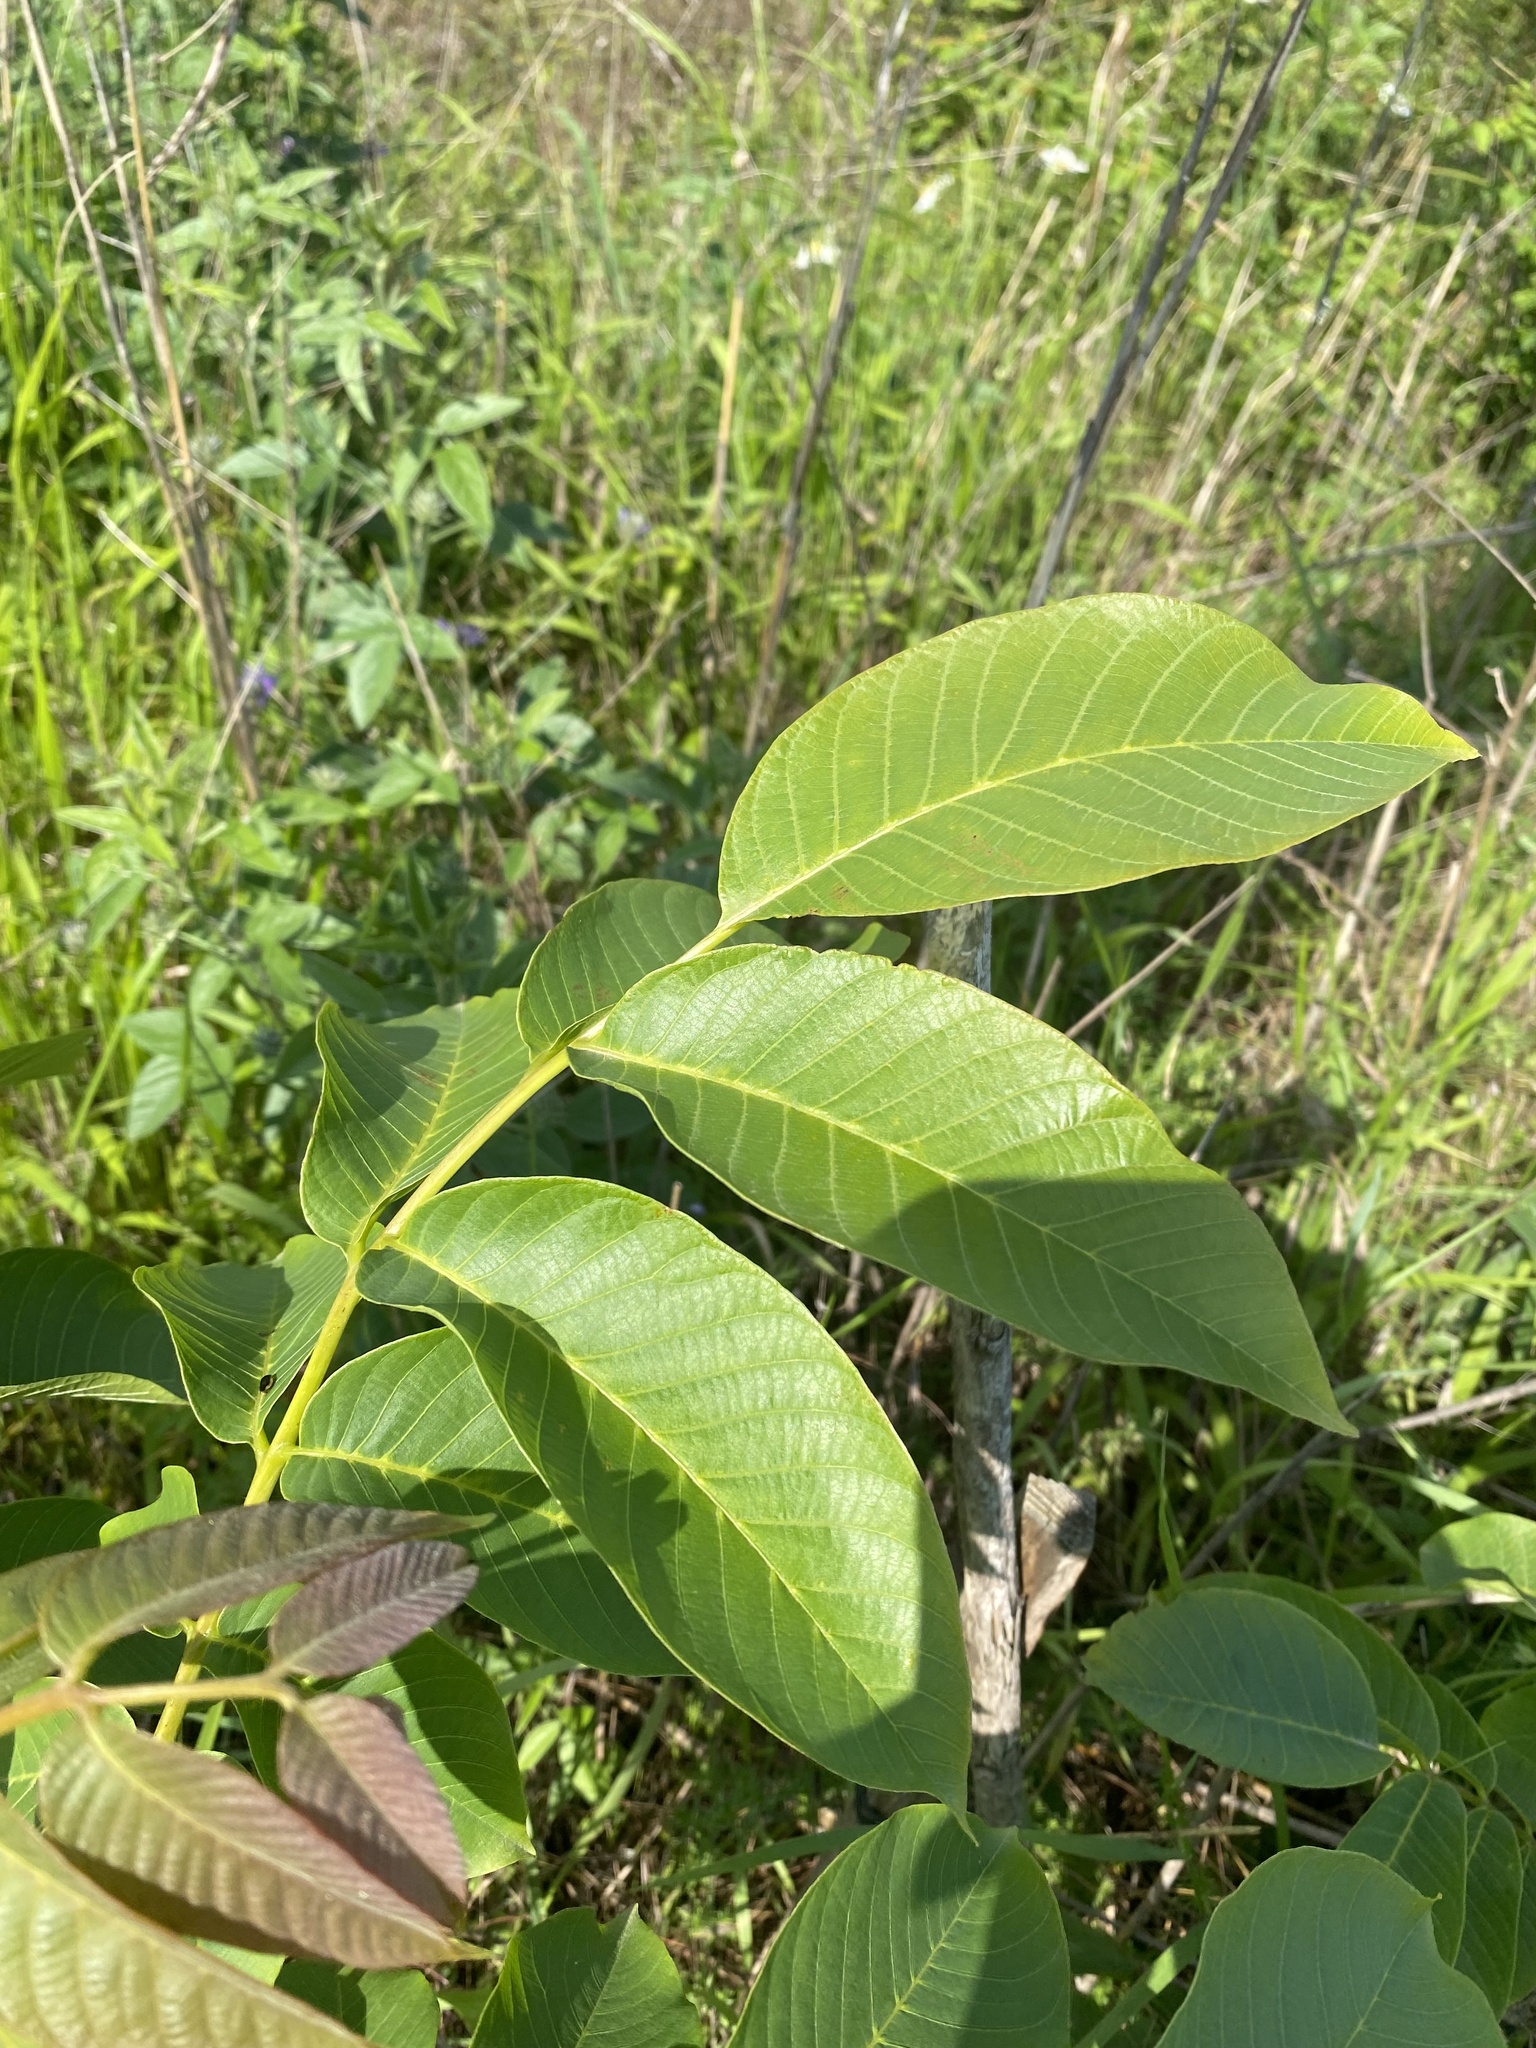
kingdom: Plantae
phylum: Tracheophyta
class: Magnoliopsida
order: Fagales
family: Juglandaceae
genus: Juglans
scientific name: Juglans regia
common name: Walnut
